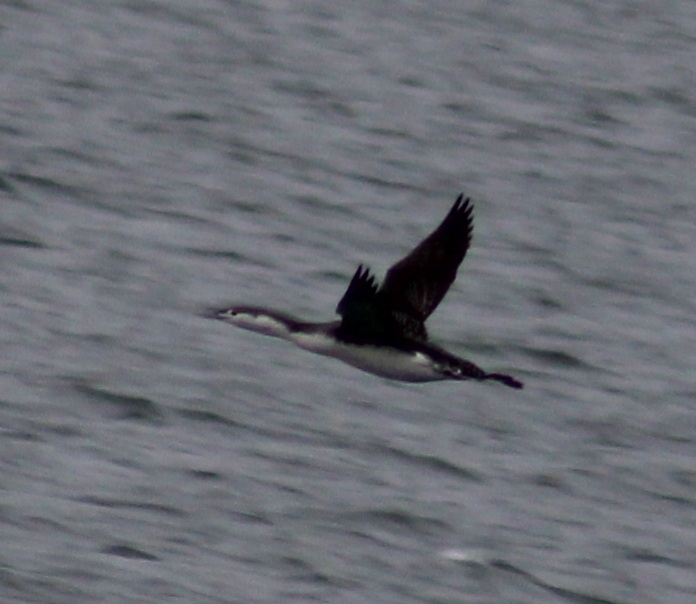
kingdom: Animalia
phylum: Chordata
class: Aves
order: Gaviiformes
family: Gaviidae
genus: Gavia
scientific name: Gavia stellata
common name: Red-throated loon
